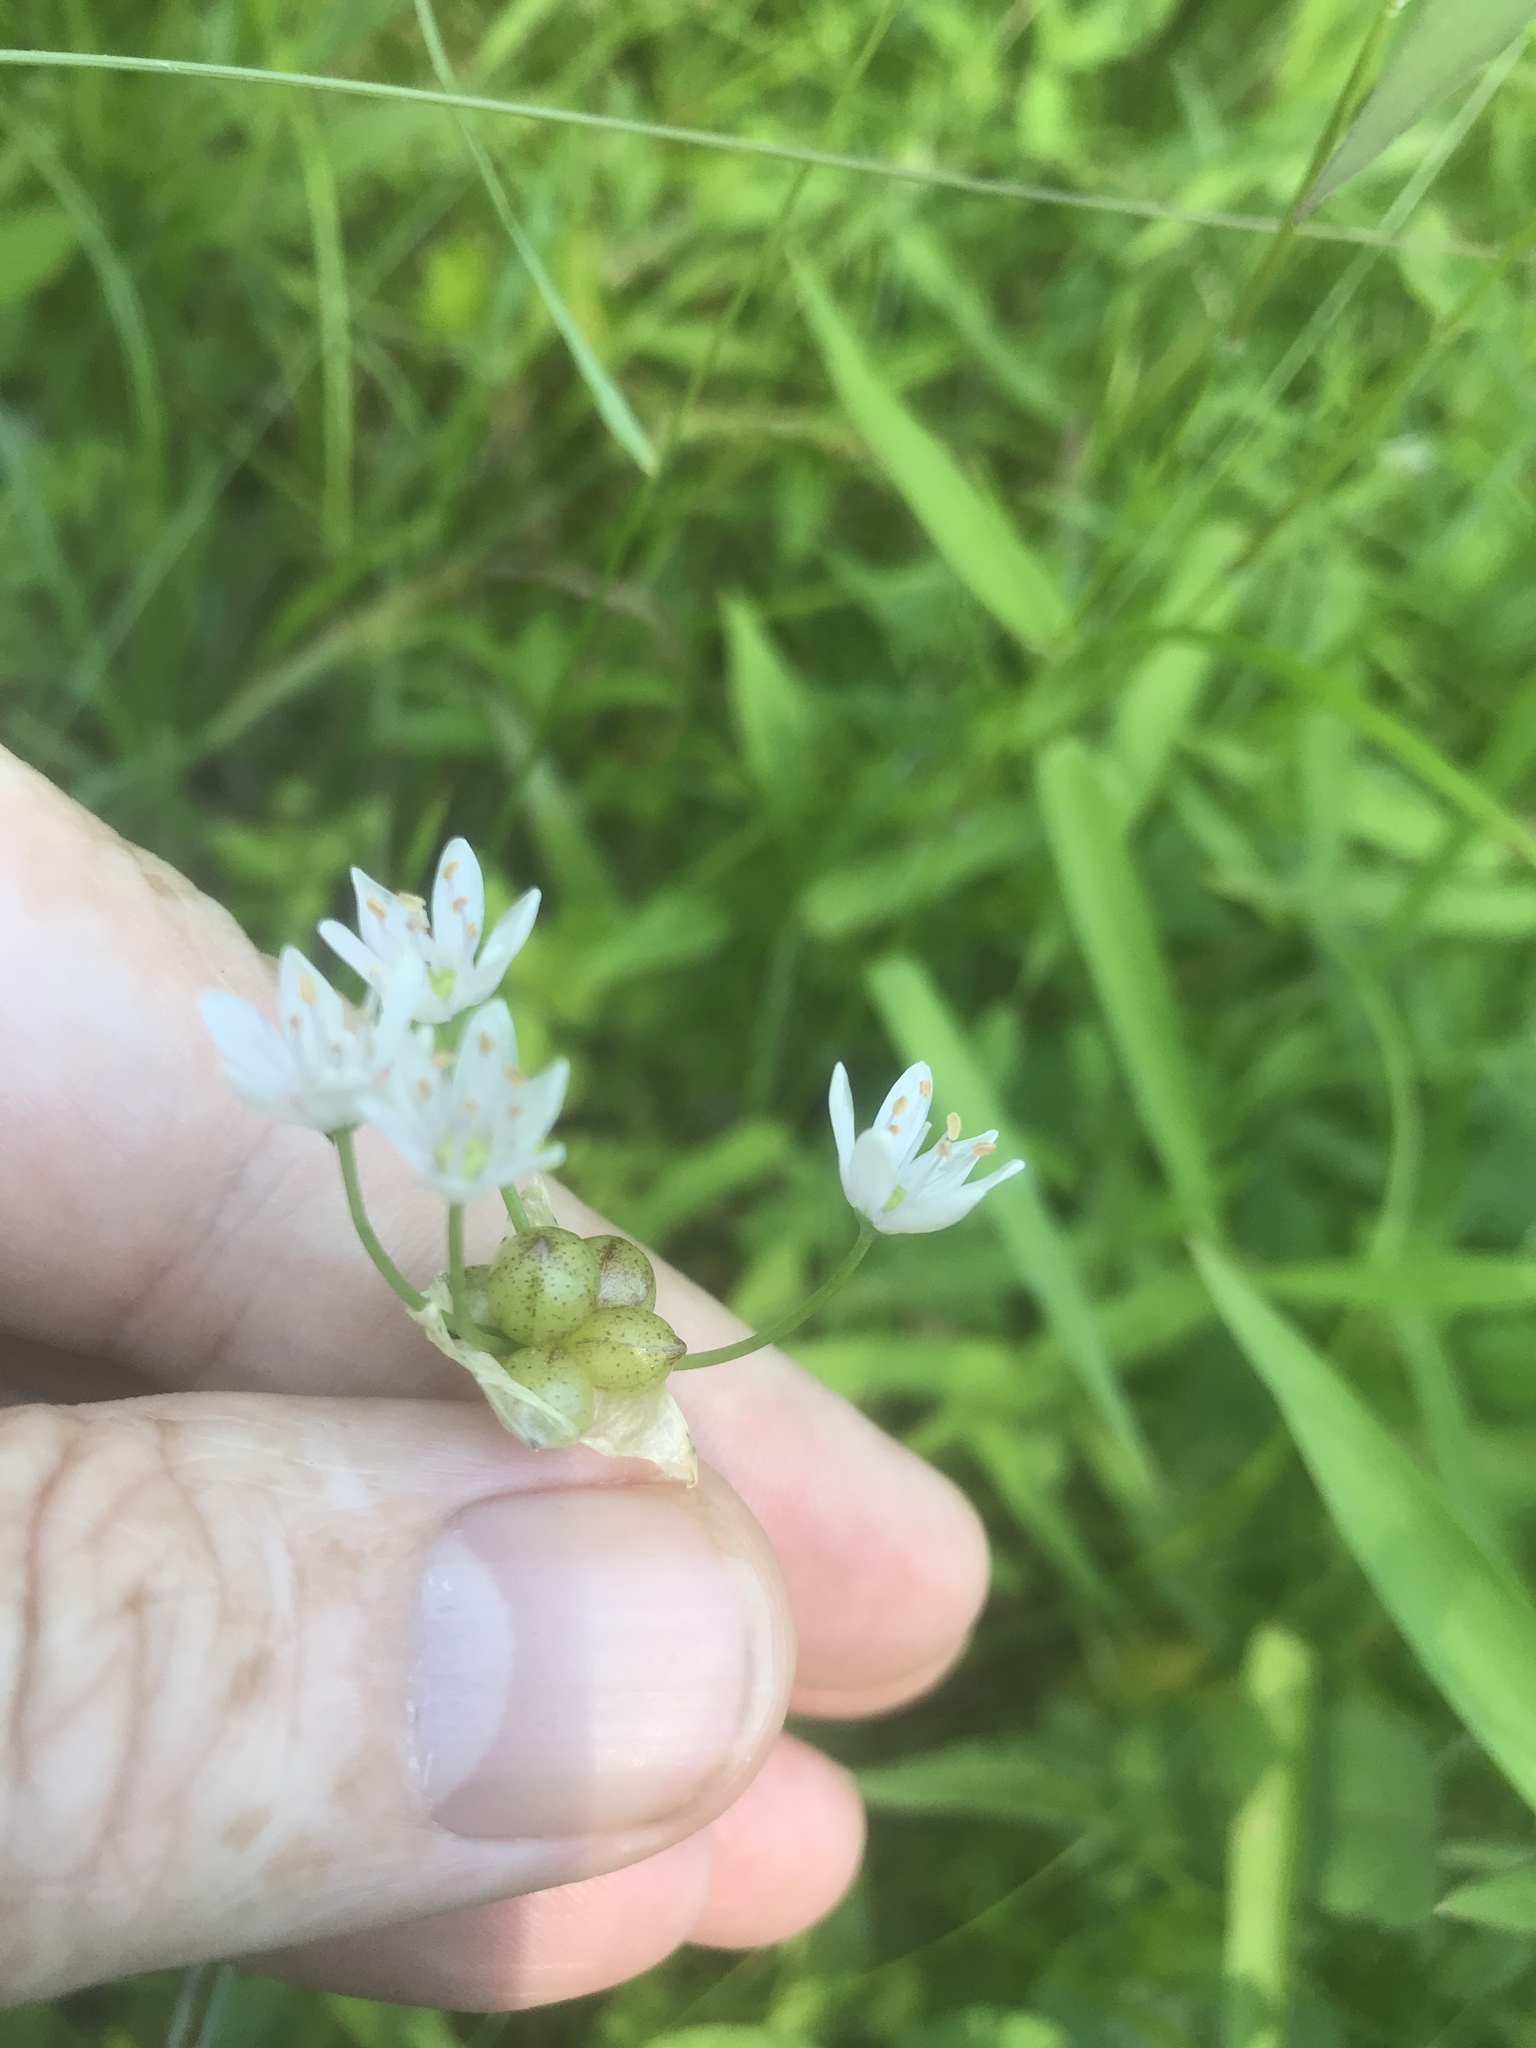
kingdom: Plantae
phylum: Tracheophyta
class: Liliopsida
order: Asparagales
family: Amaryllidaceae
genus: Allium
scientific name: Allium canadense
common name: Meadow garlic
